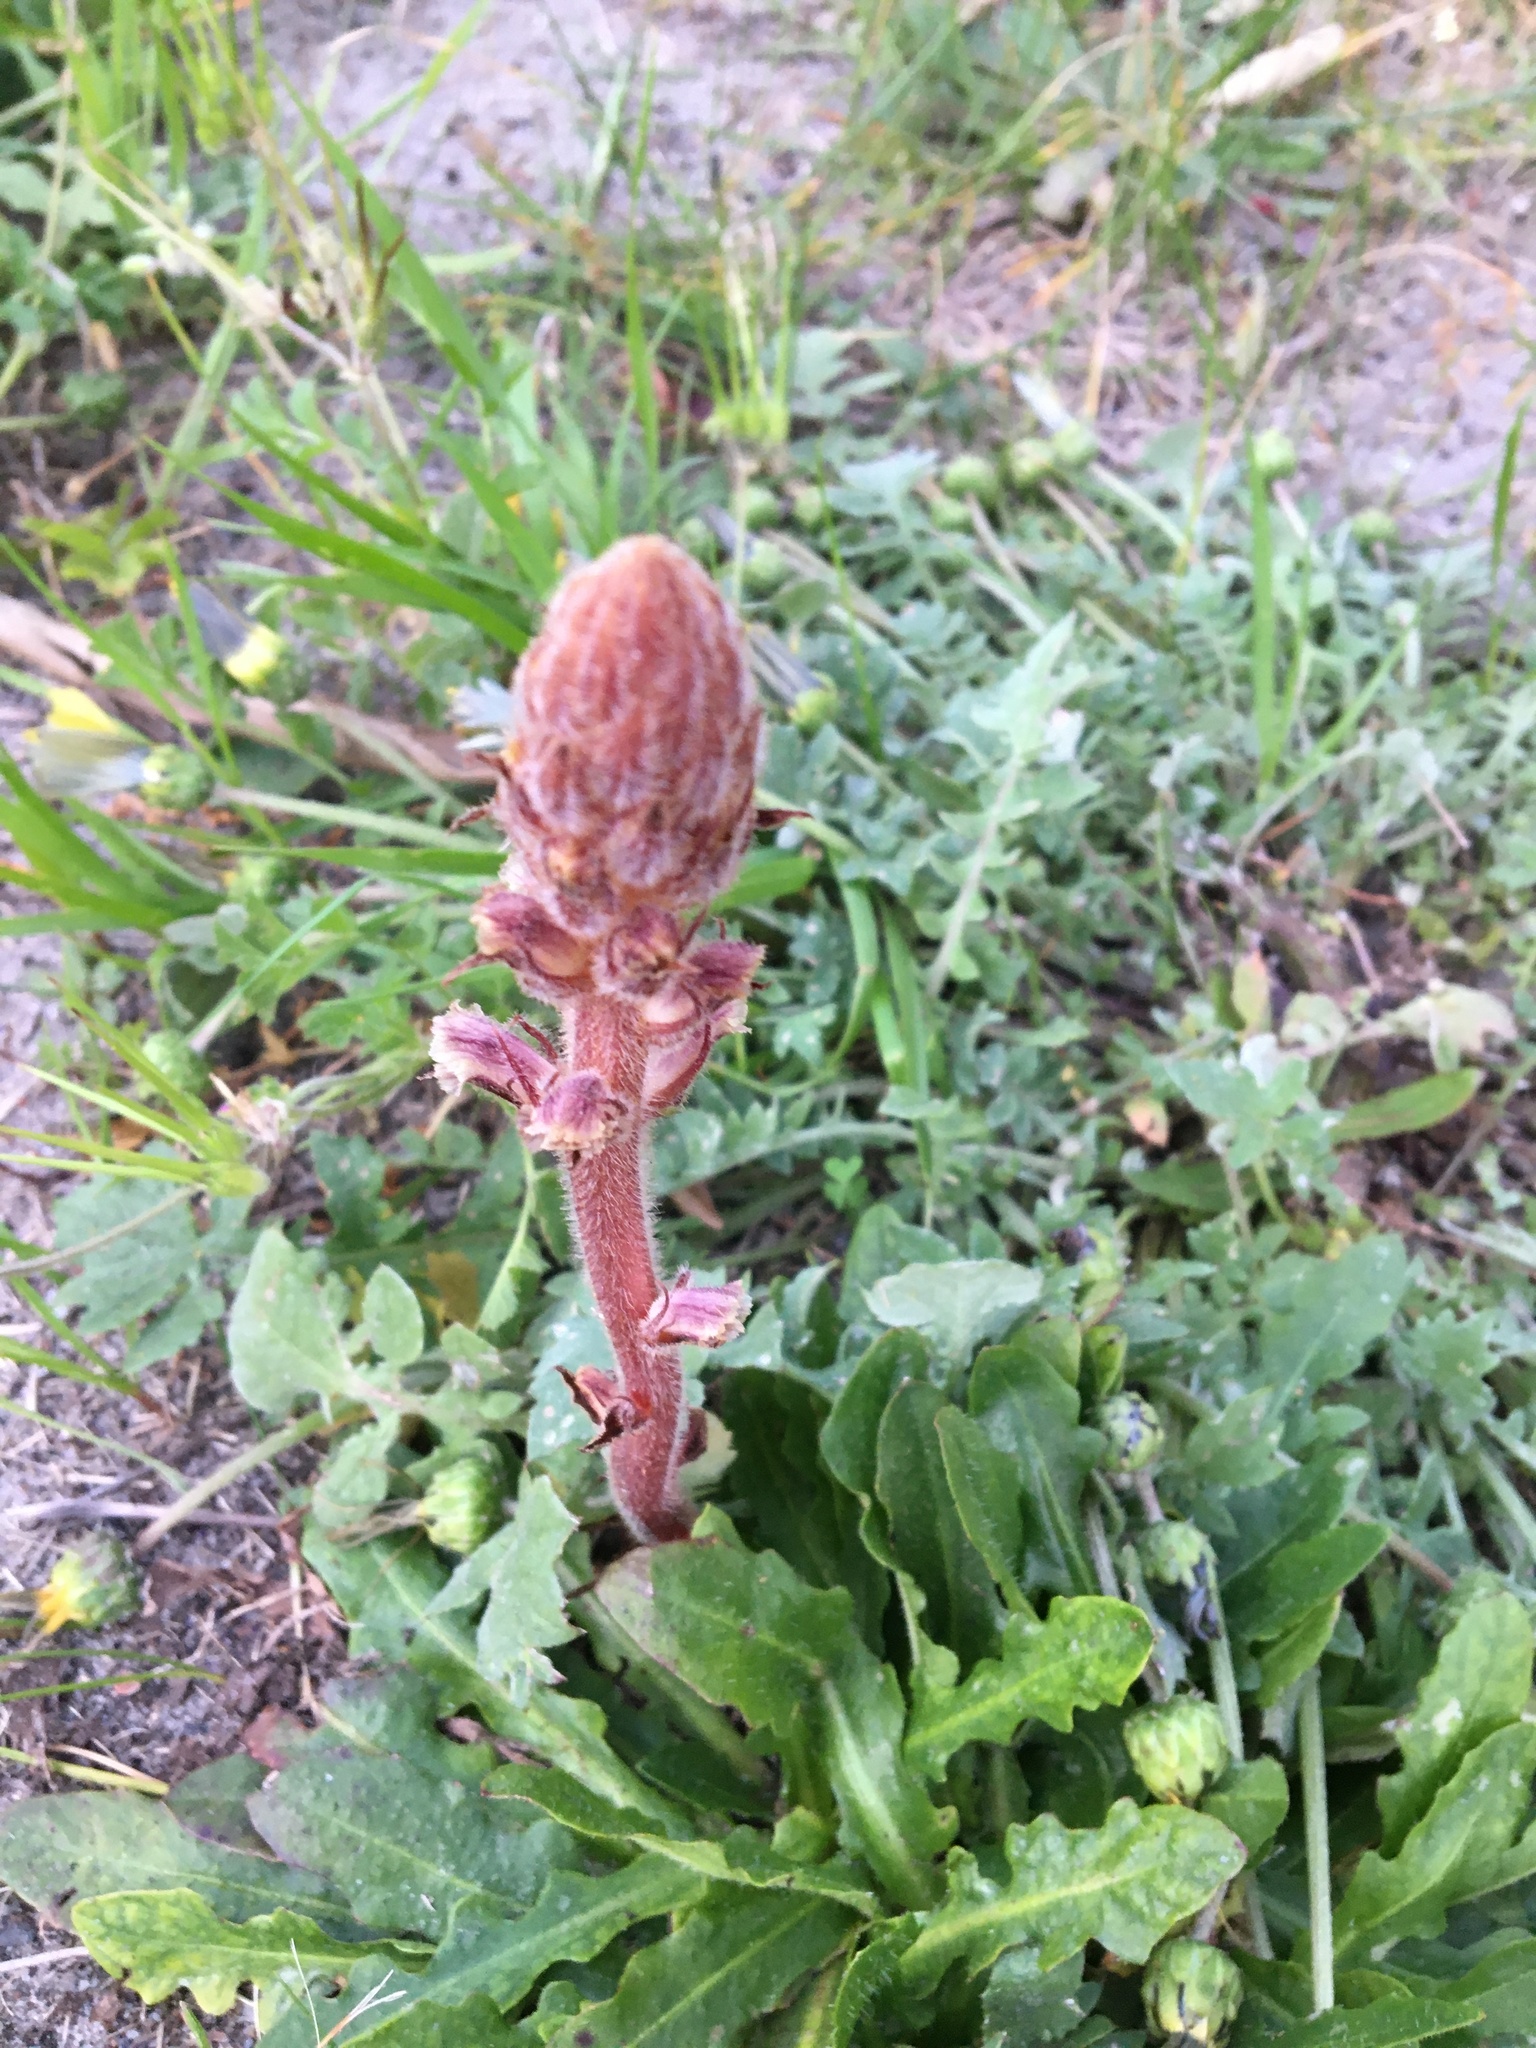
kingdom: Plantae
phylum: Tracheophyta
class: Magnoliopsida
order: Lamiales
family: Orobanchaceae
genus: Orobanche
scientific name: Orobanche minor
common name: Common broomrape
